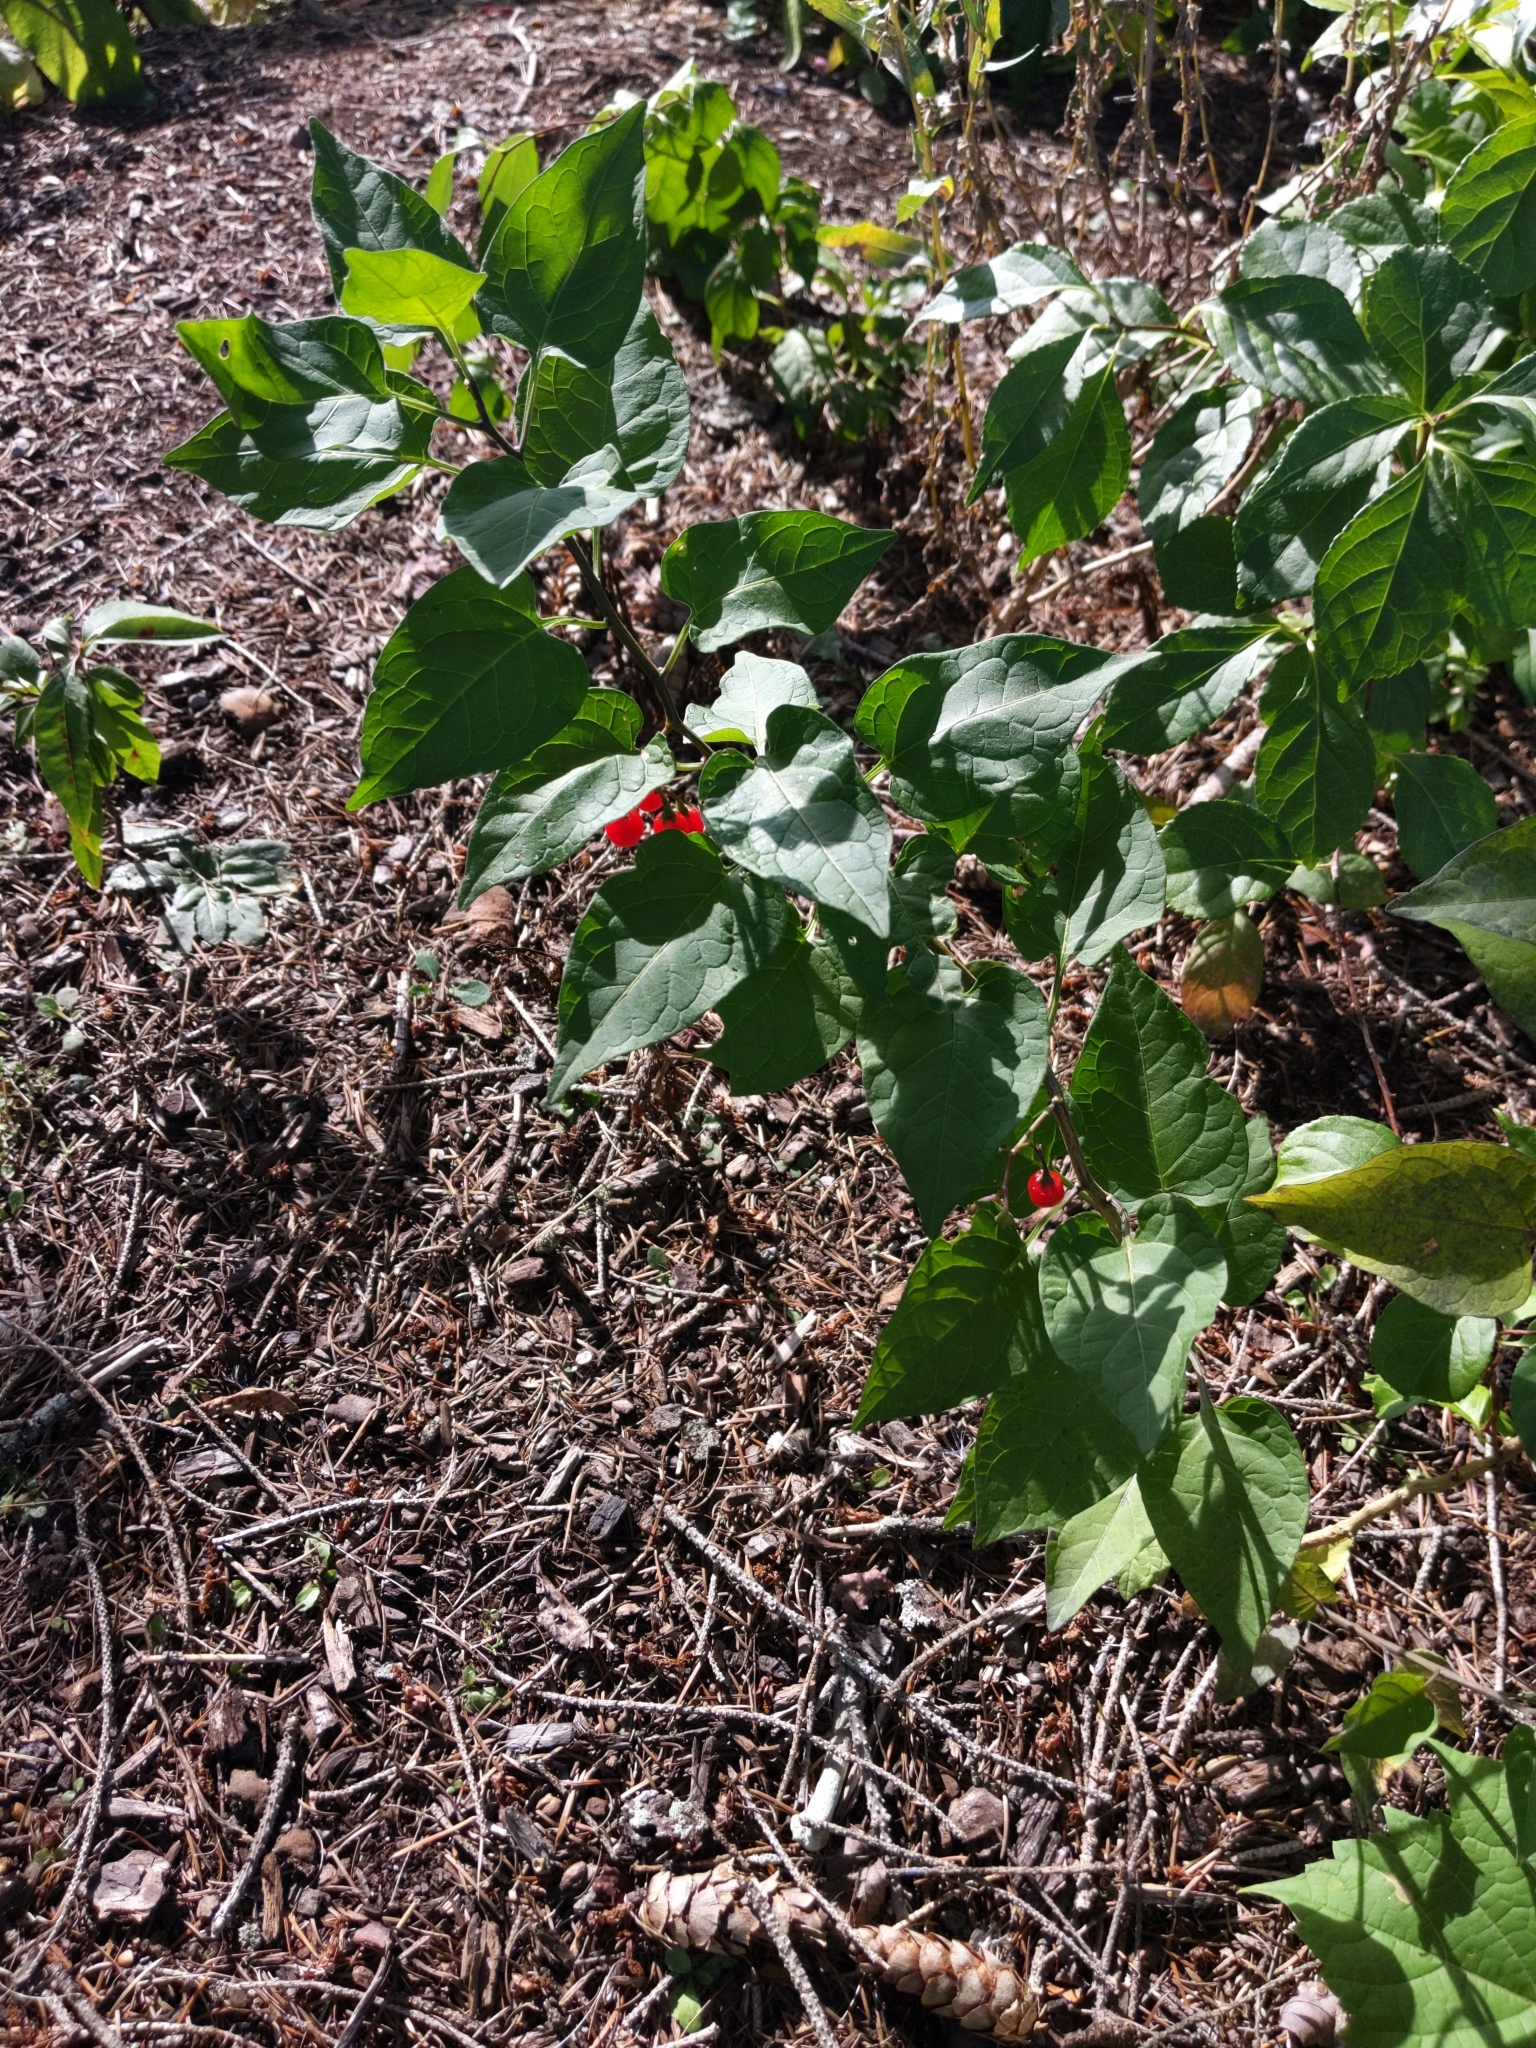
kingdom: Plantae
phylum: Tracheophyta
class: Magnoliopsida
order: Solanales
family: Solanaceae
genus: Solanum
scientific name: Solanum dulcamara
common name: Climbing nightshade
